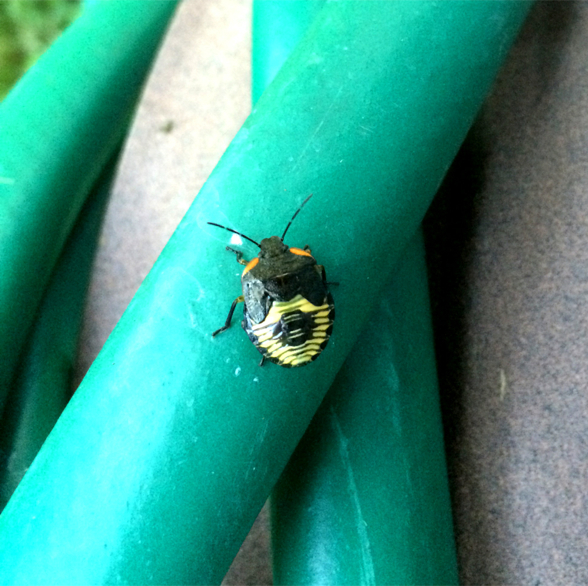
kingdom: Animalia
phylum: Arthropoda
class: Insecta
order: Hemiptera
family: Pentatomidae
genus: Chinavia
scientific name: Chinavia hilaris
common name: Green stink bug
